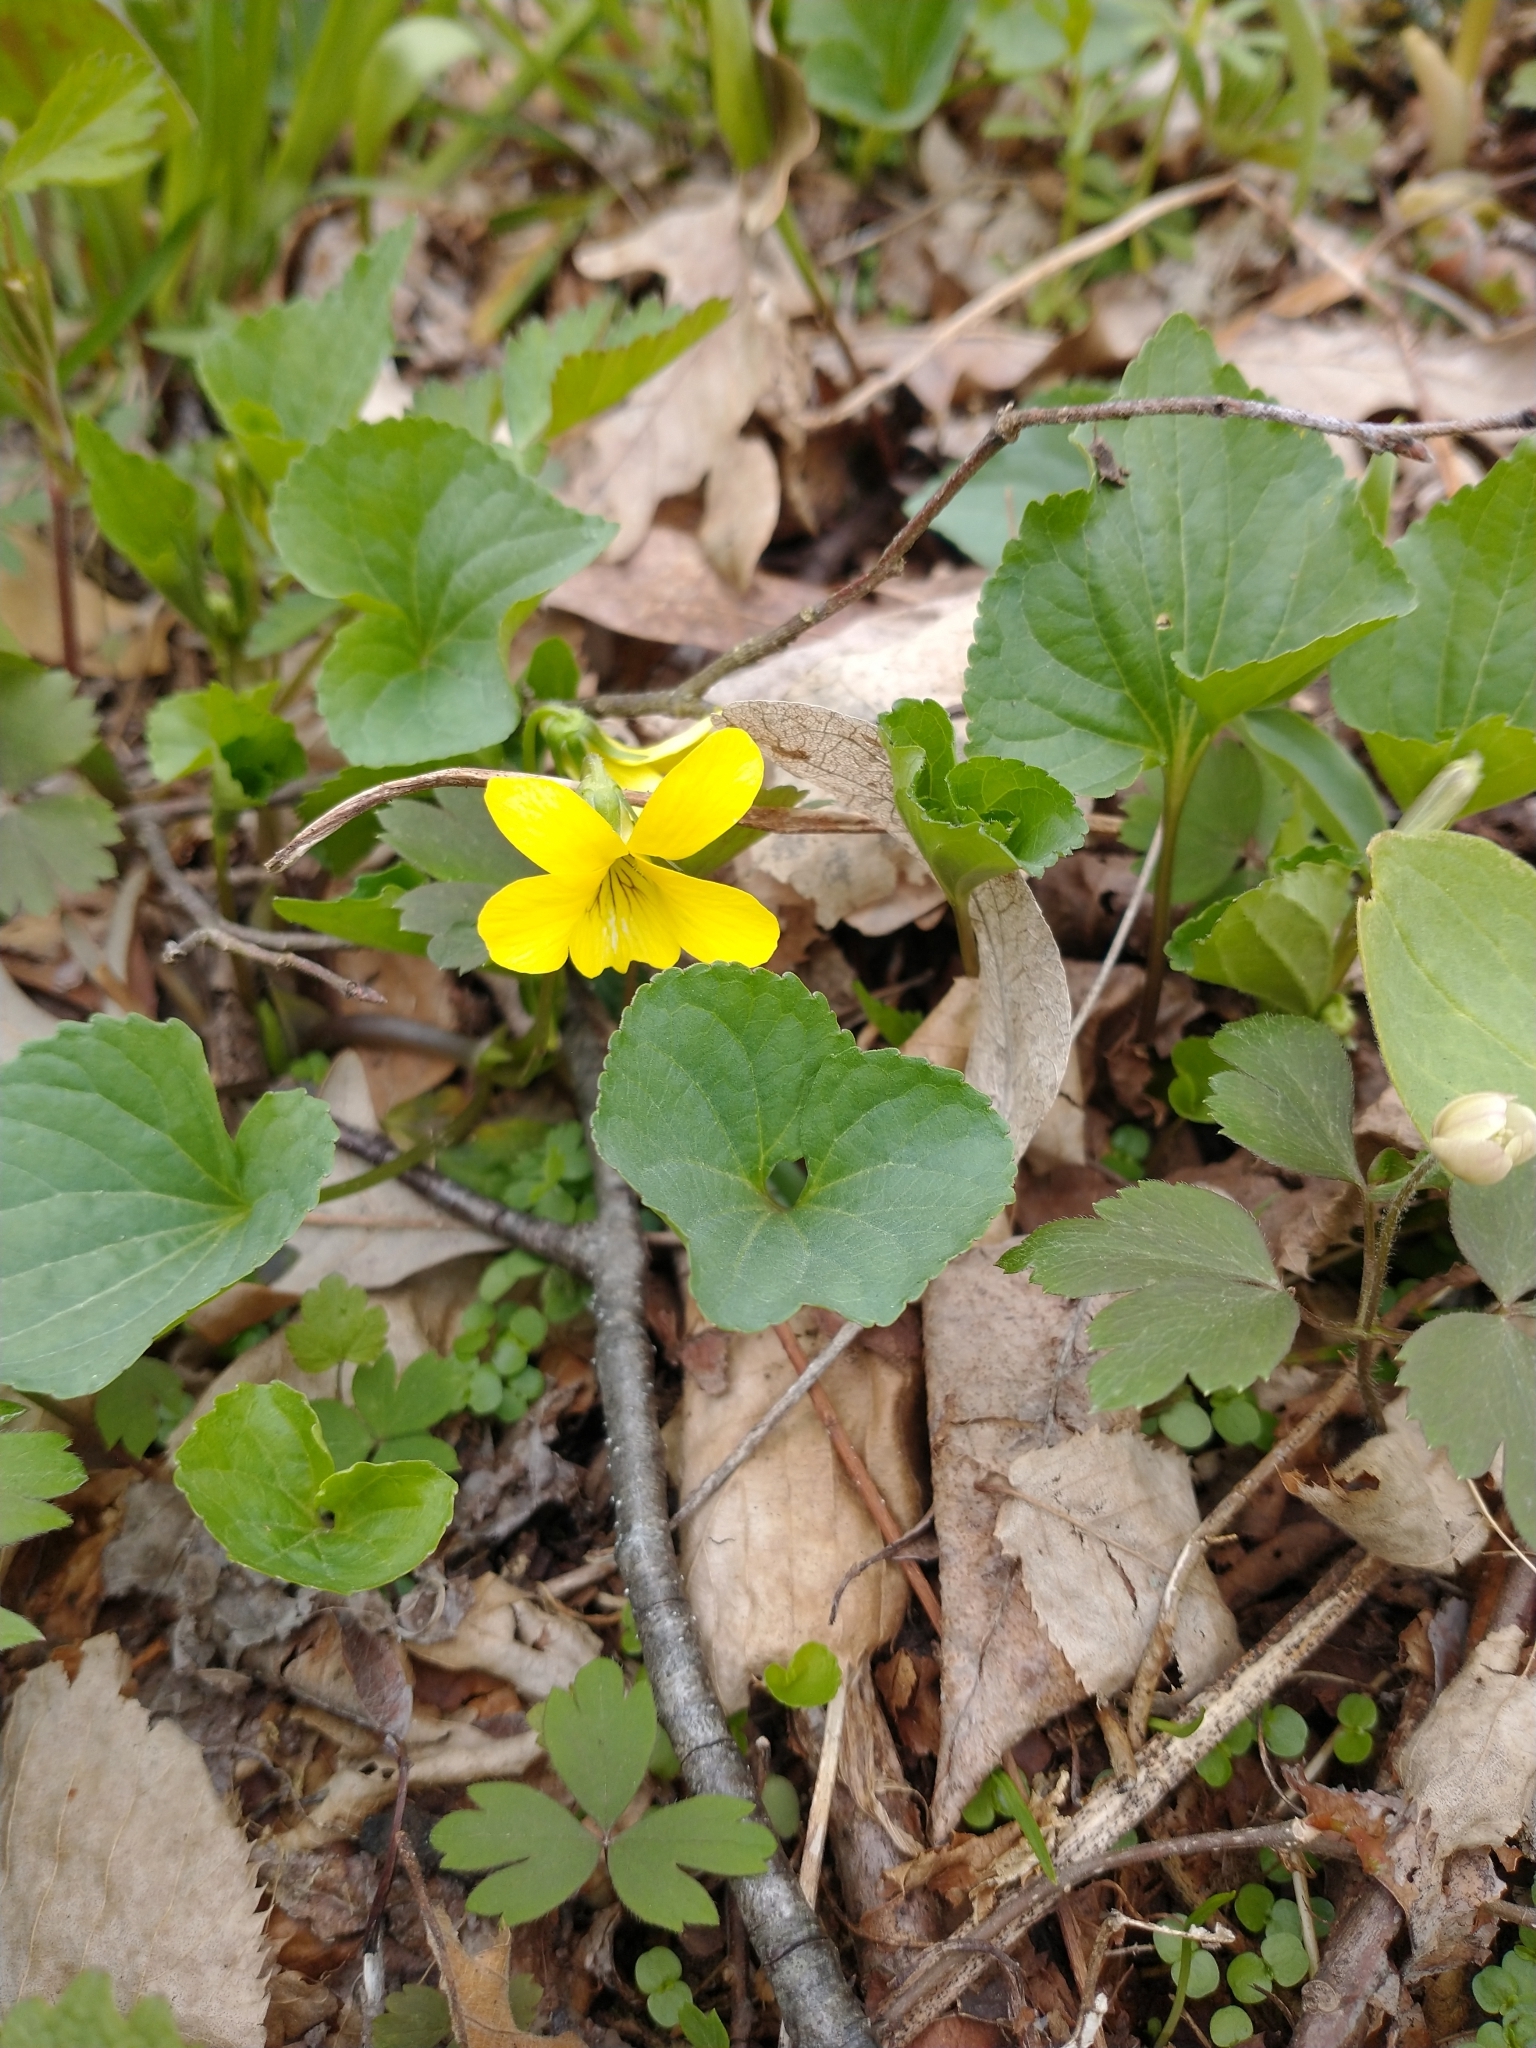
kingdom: Plantae
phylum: Tracheophyta
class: Magnoliopsida
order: Malpighiales
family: Violaceae
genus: Viola
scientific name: Viola eriocarpa
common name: Smooth yellow violet
